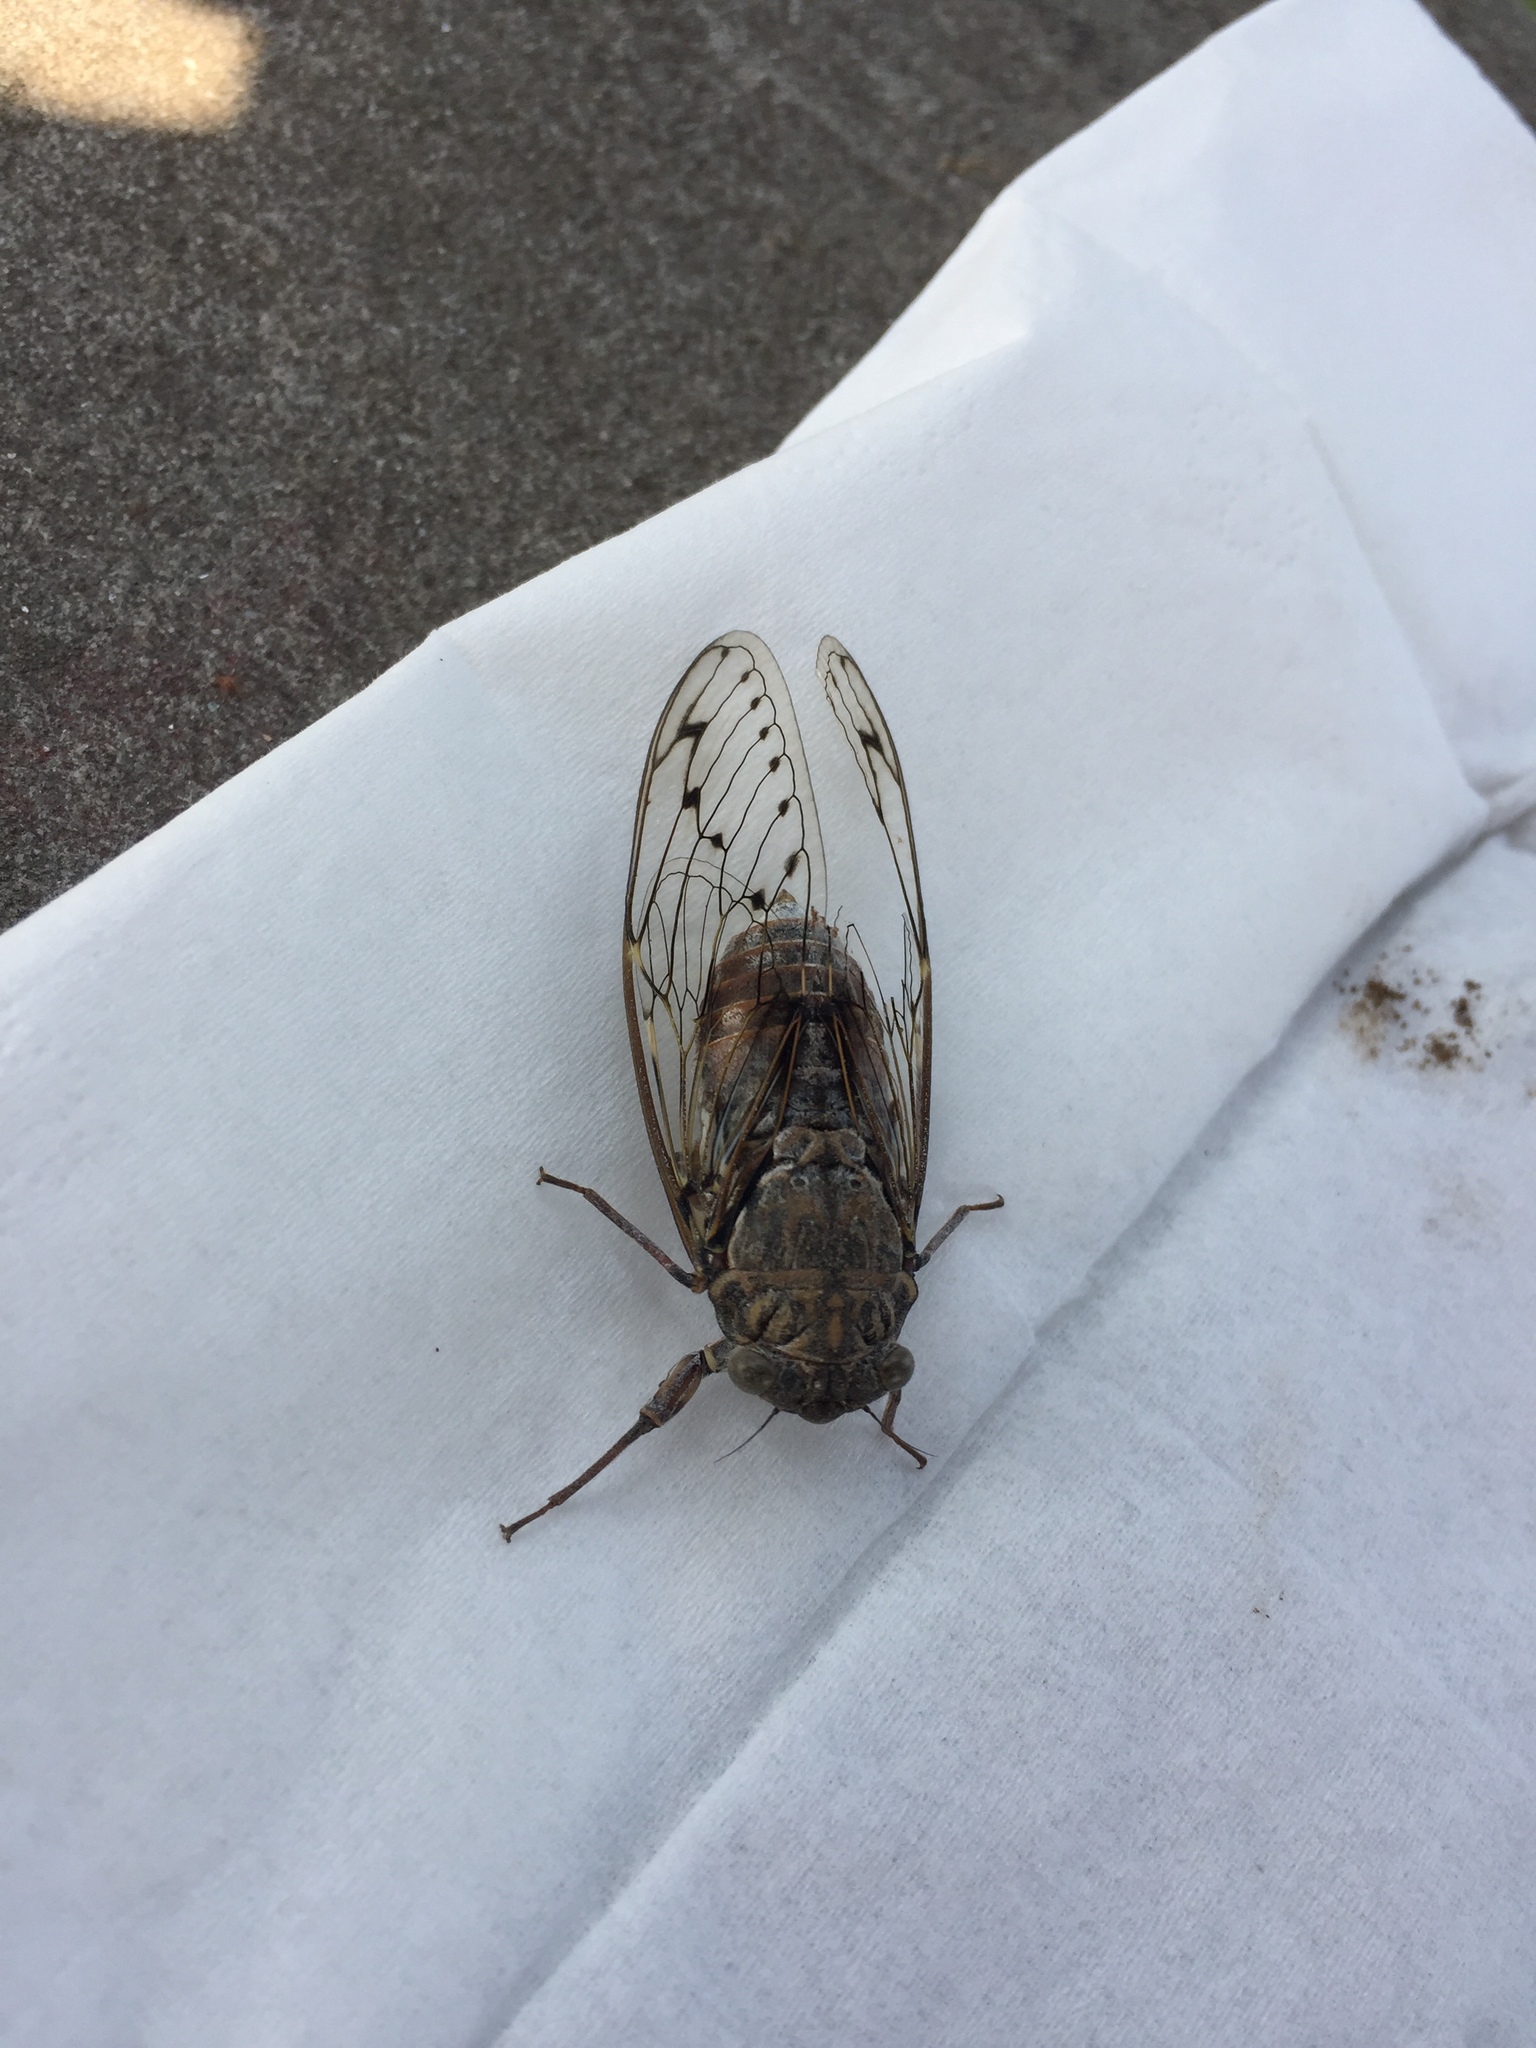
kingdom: Animalia
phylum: Arthropoda
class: Insecta
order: Hemiptera
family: Cicadidae
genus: Cicada
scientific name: Cicada orni
